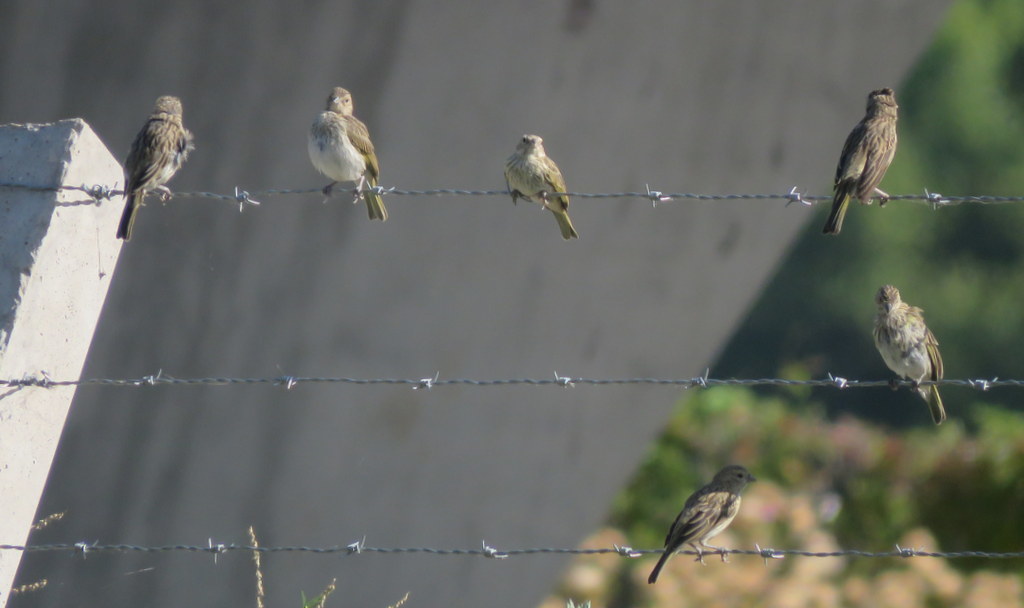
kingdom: Animalia
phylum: Chordata
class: Aves
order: Passeriformes
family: Thraupidae
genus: Sicalis
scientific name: Sicalis flaveola
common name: Saffron finch
